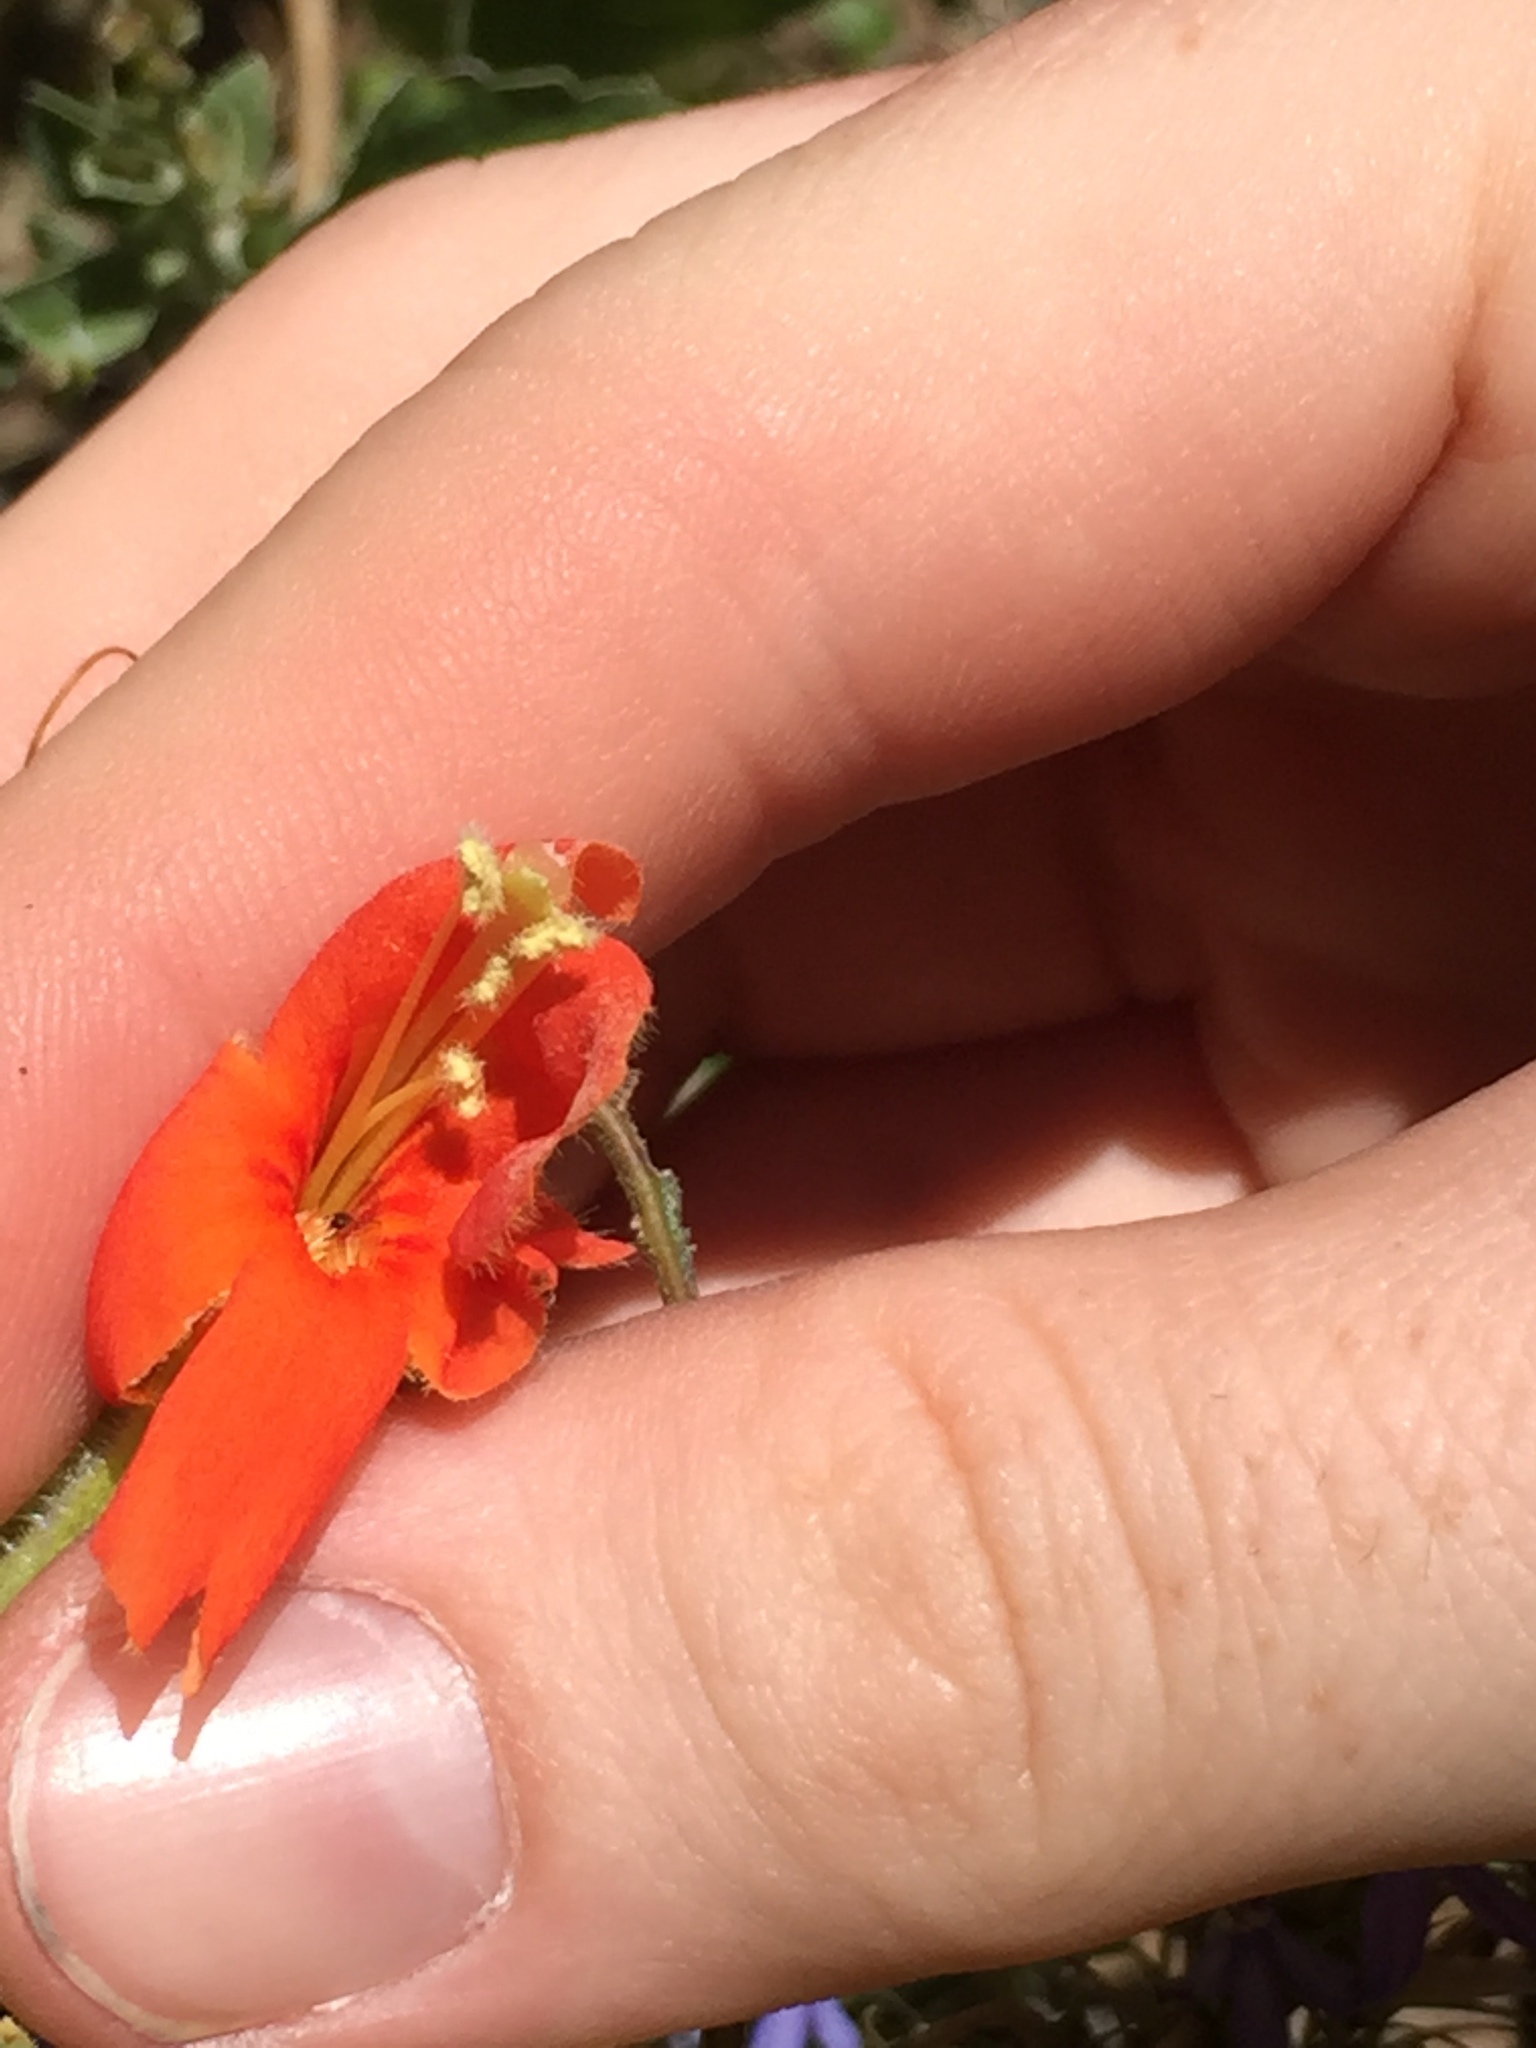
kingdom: Plantae
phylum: Tracheophyta
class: Magnoliopsida
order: Lamiales
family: Phrymaceae
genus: Erythranthe
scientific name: Erythranthe cardinalis
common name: Scarlet monkey-flower
